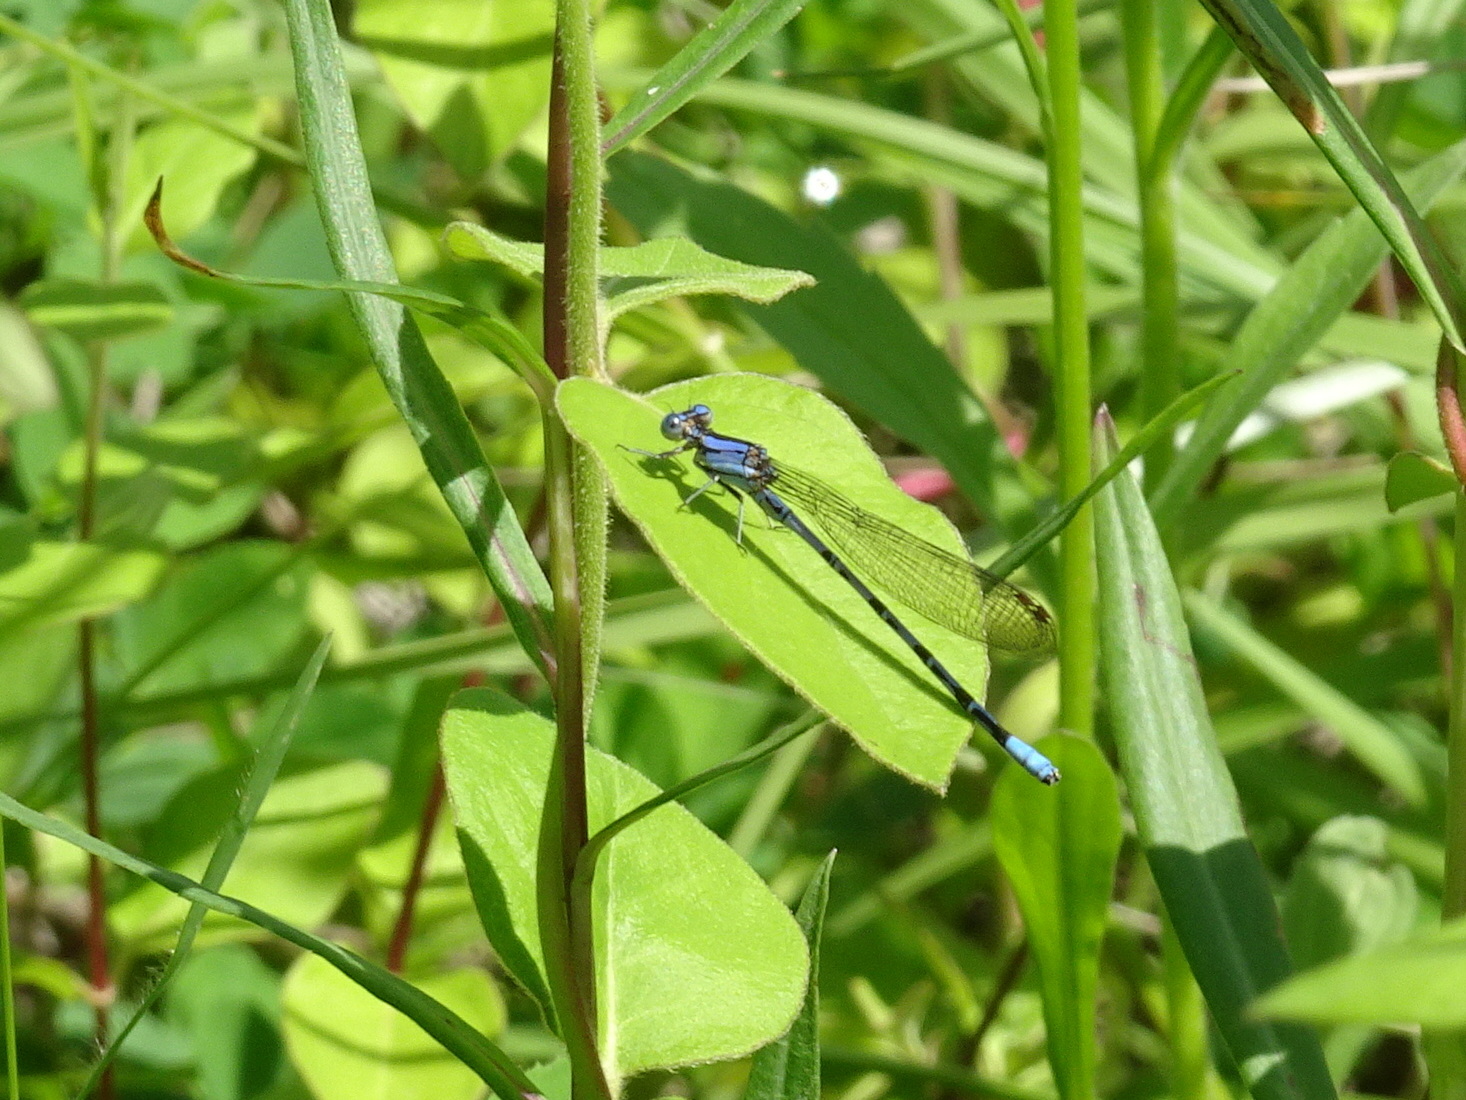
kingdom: Animalia
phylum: Arthropoda
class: Insecta
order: Odonata
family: Coenagrionidae
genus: Argia
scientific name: Argia funebris
